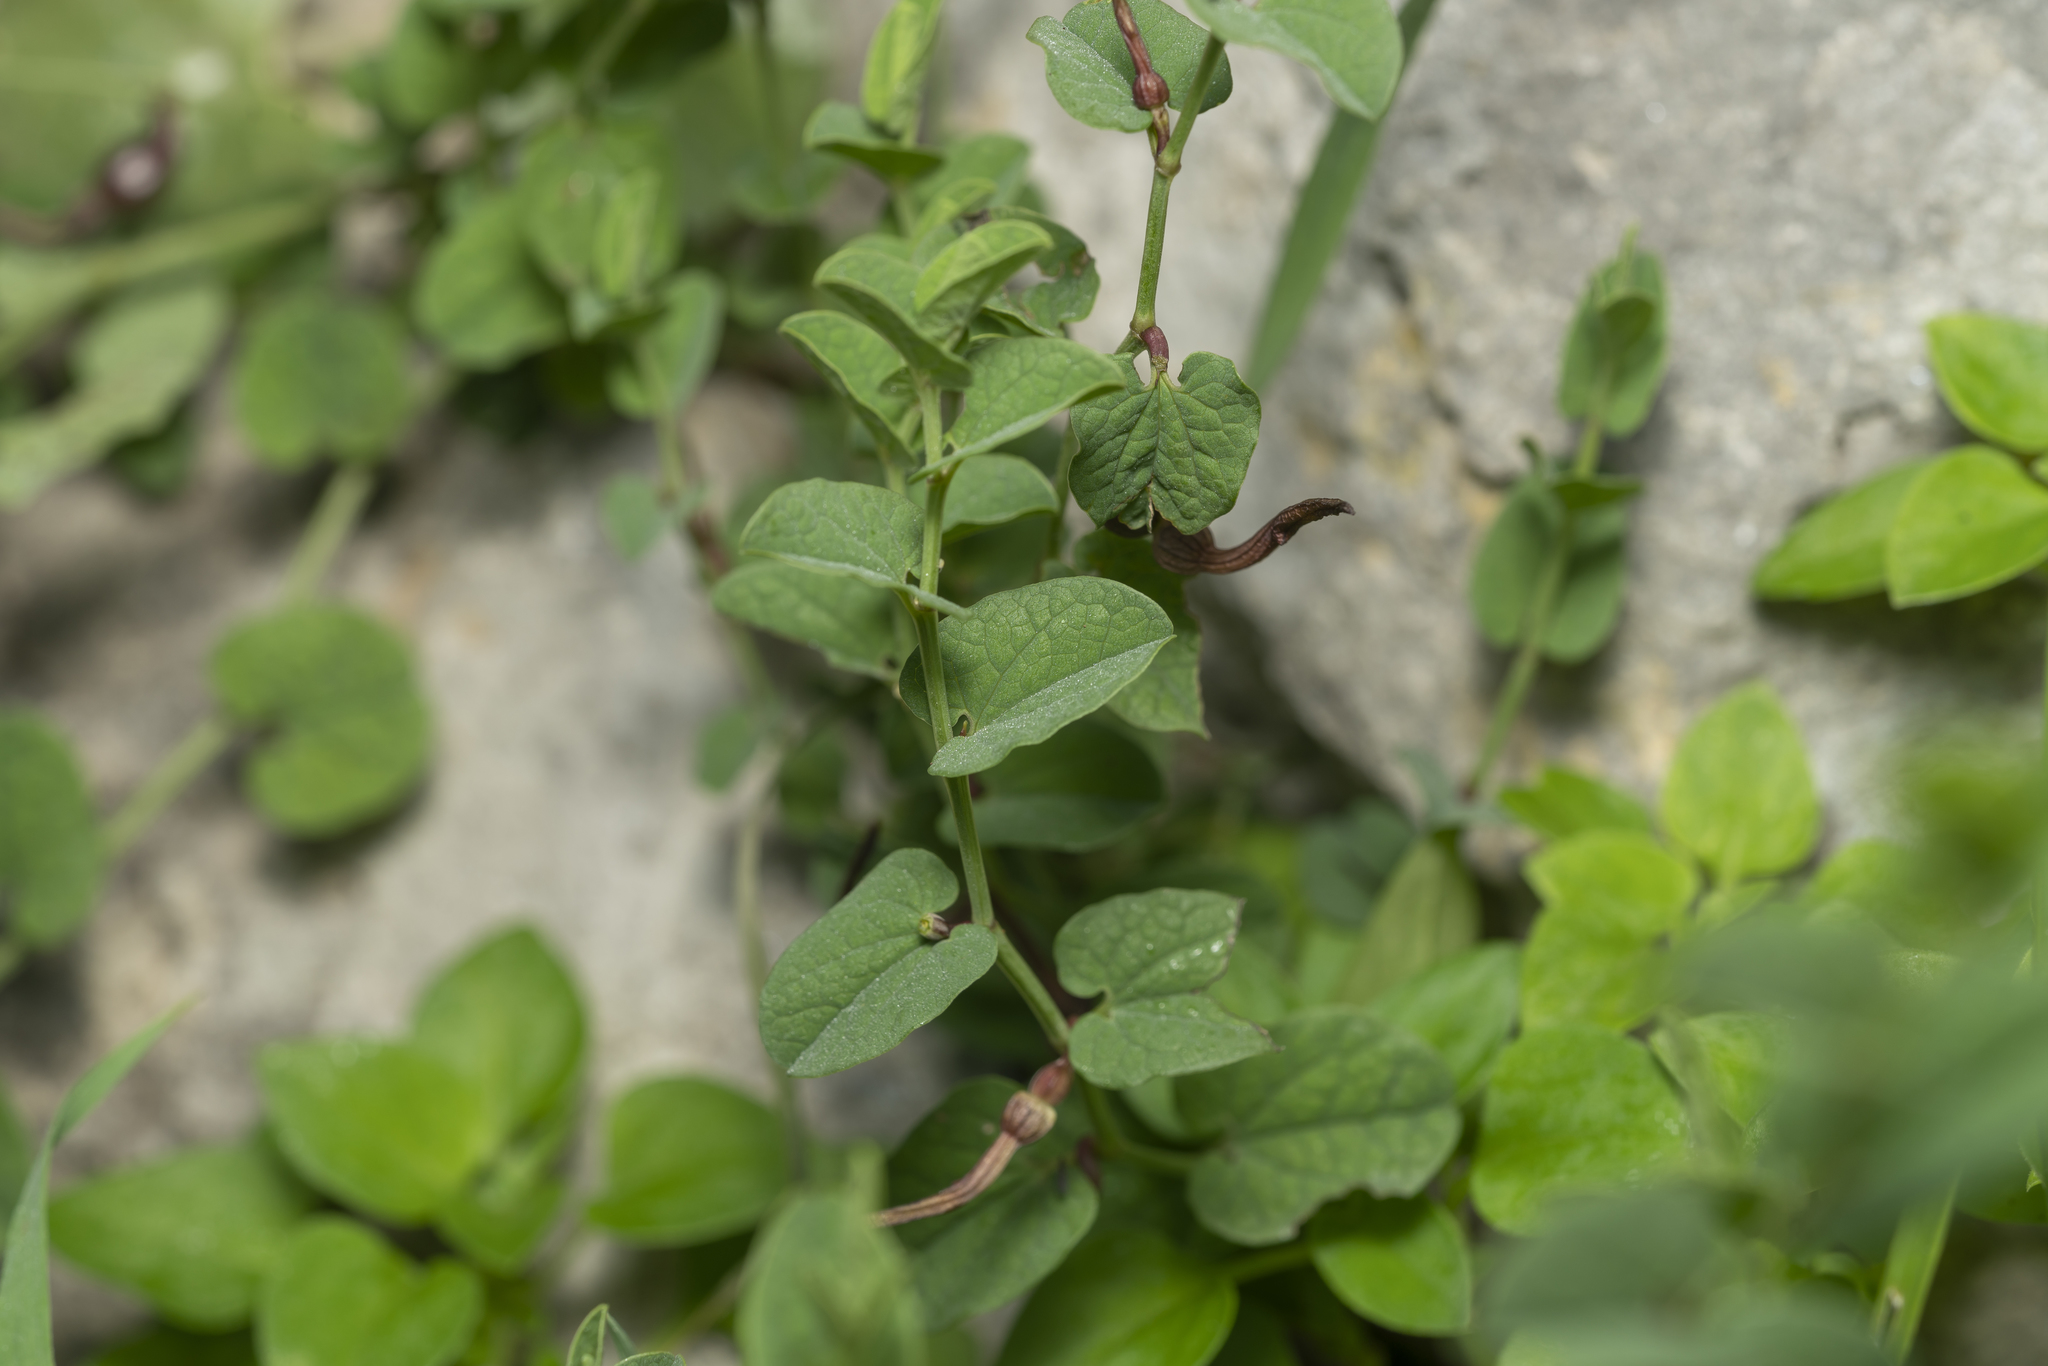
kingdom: Plantae
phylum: Tracheophyta
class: Magnoliopsida
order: Piperales
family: Aristolochiaceae
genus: Aristolochia
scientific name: Aristolochia parvifolia
